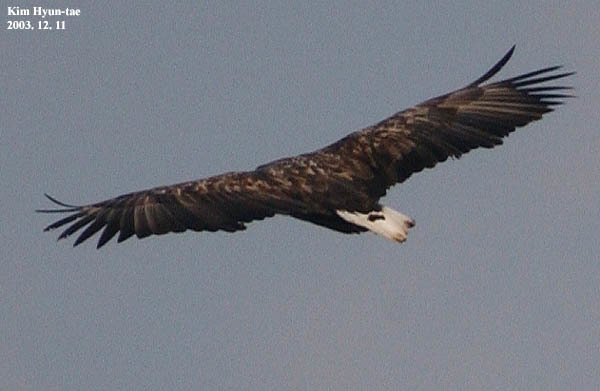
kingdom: Animalia
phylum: Chordata
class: Aves
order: Accipitriformes
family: Accipitridae
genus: Haliaeetus
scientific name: Haliaeetus albicilla
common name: White-tailed eagle
